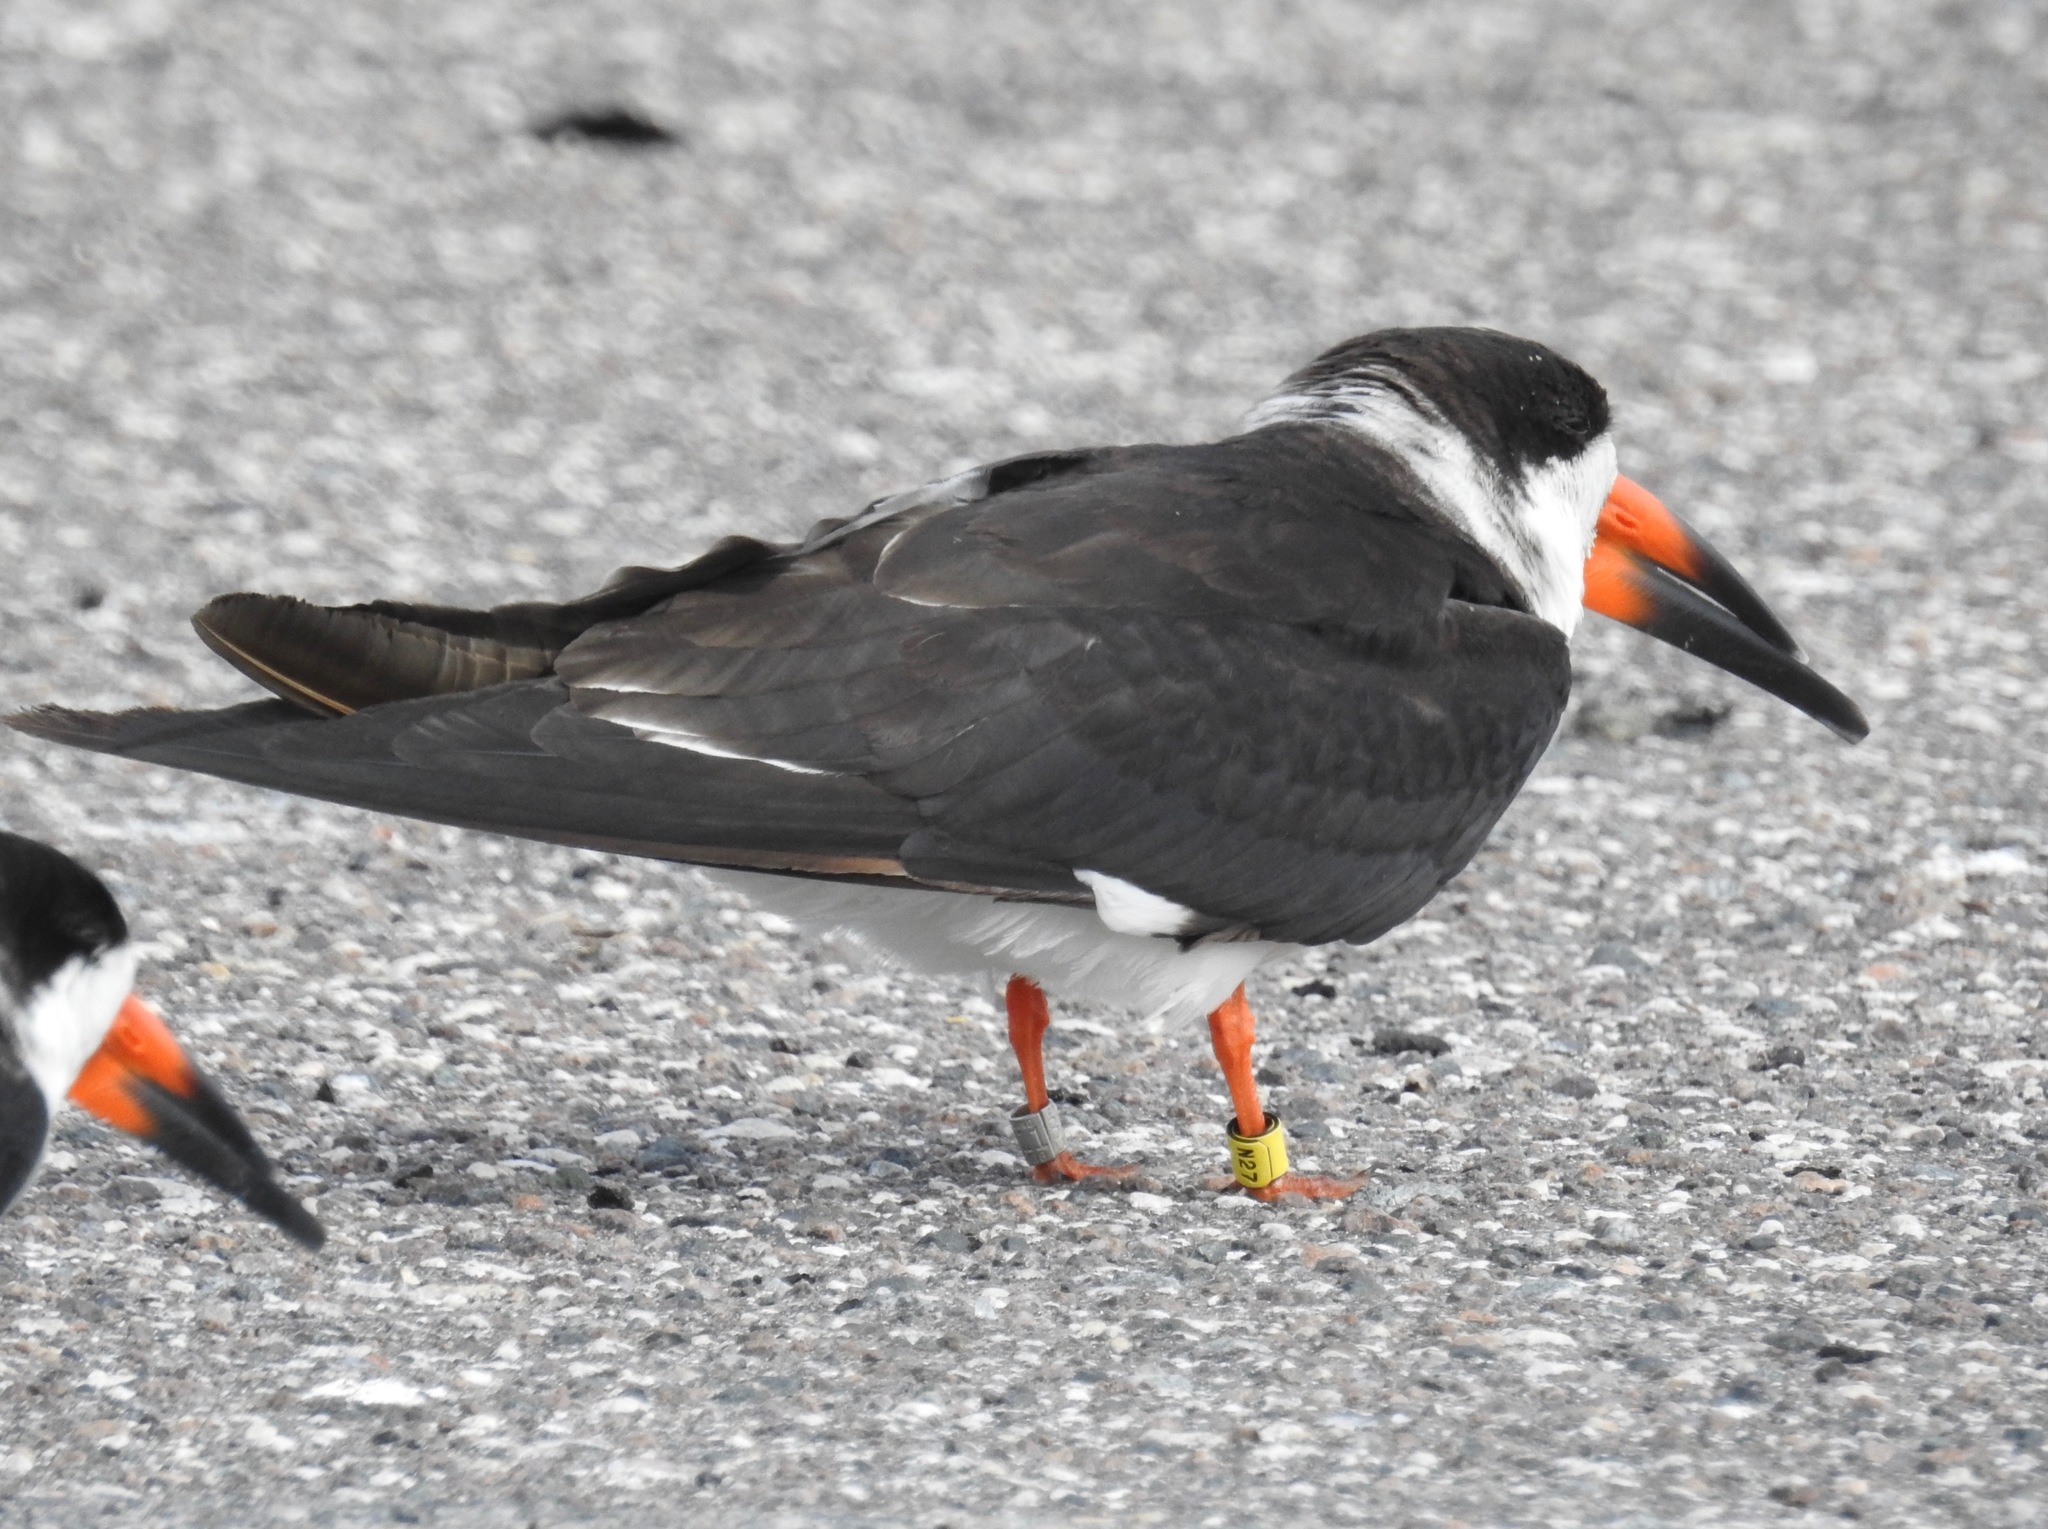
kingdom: Animalia
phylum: Chordata
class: Aves
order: Charadriiformes
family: Laridae
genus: Rynchops
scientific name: Rynchops niger
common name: Black skimmer
